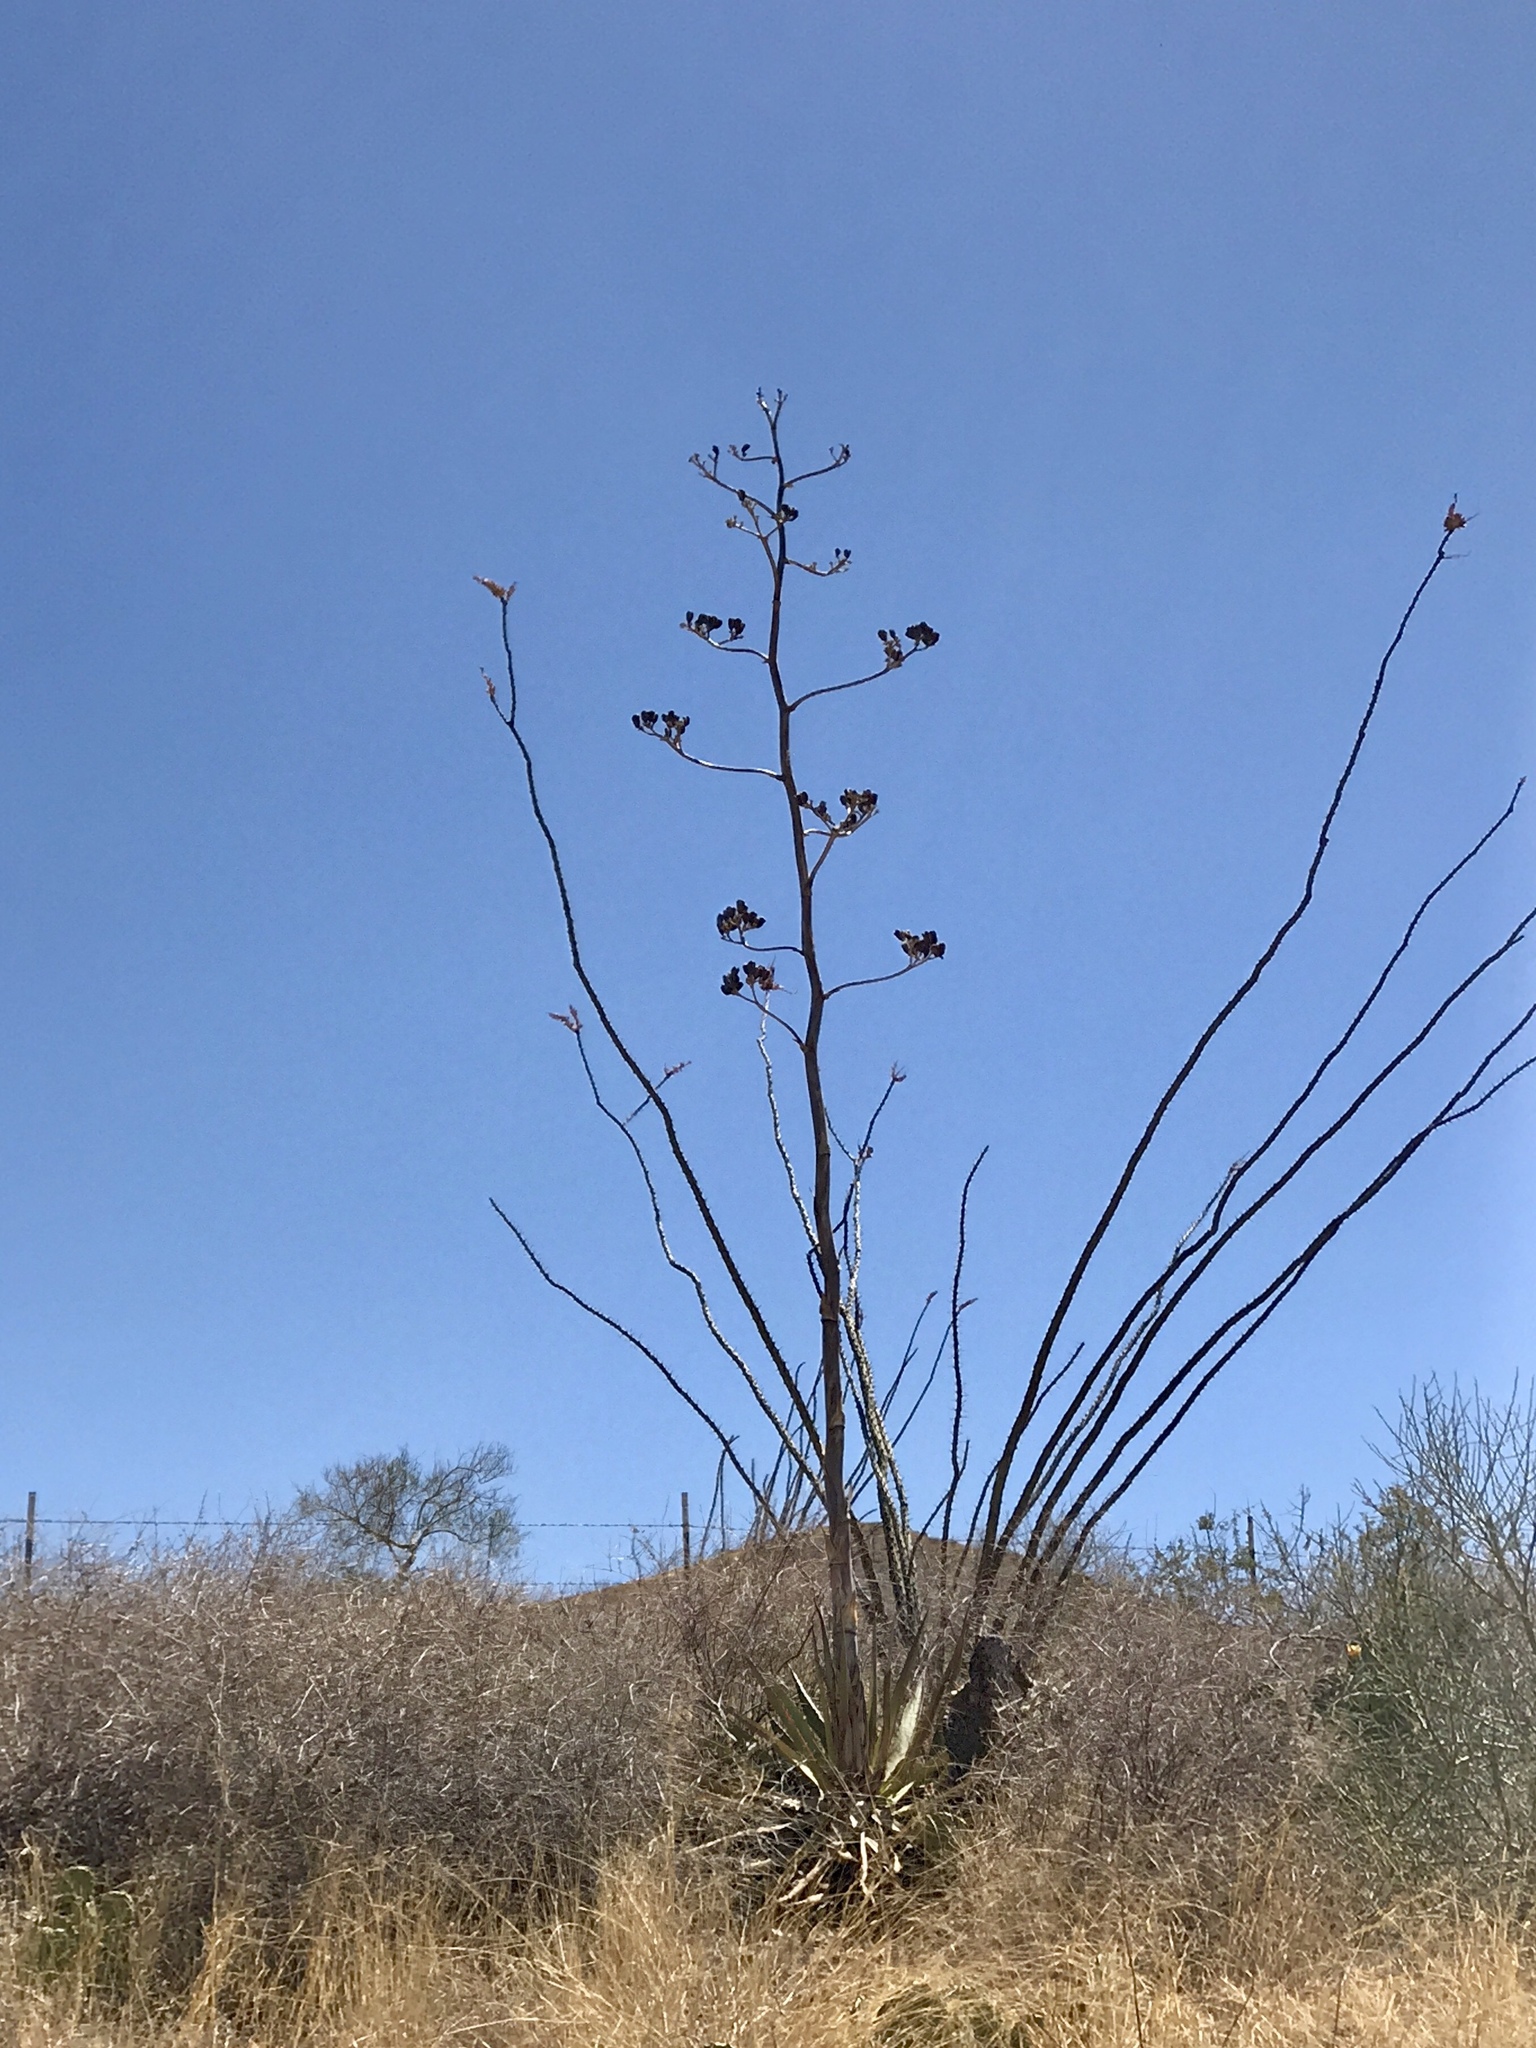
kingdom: Plantae
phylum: Tracheophyta
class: Liliopsida
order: Asparagales
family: Asparagaceae
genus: Agave
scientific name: Agave palmeri
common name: Palmer agave
